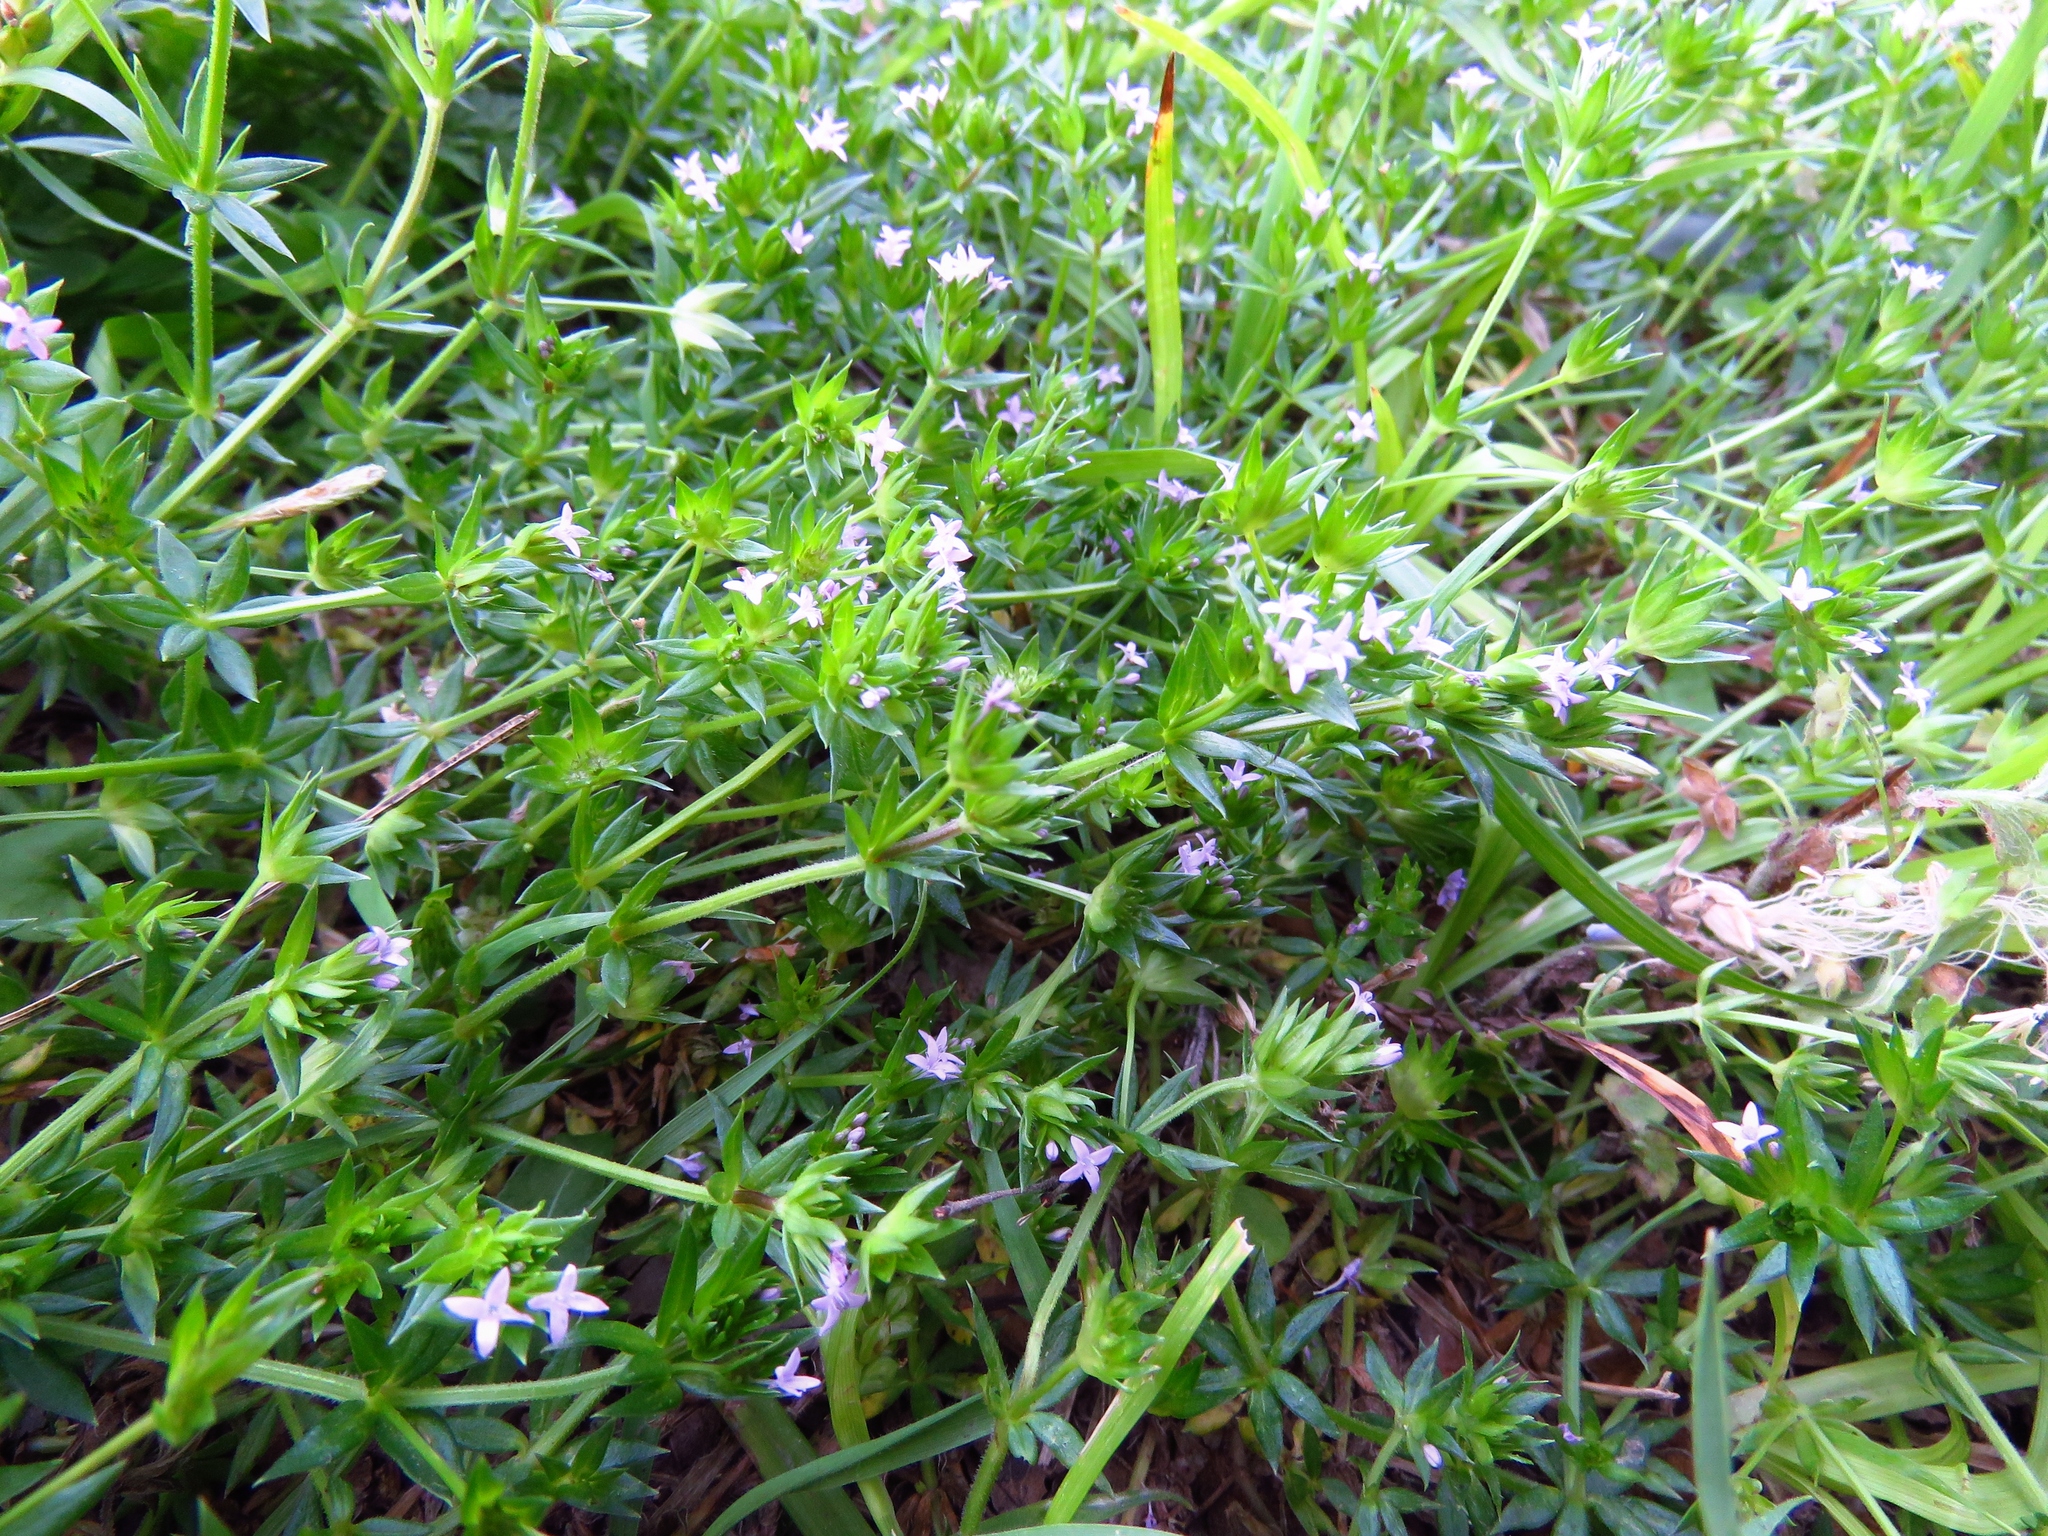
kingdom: Plantae
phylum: Tracheophyta
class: Magnoliopsida
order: Gentianales
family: Rubiaceae
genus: Sherardia
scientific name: Sherardia arvensis
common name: Field madder
